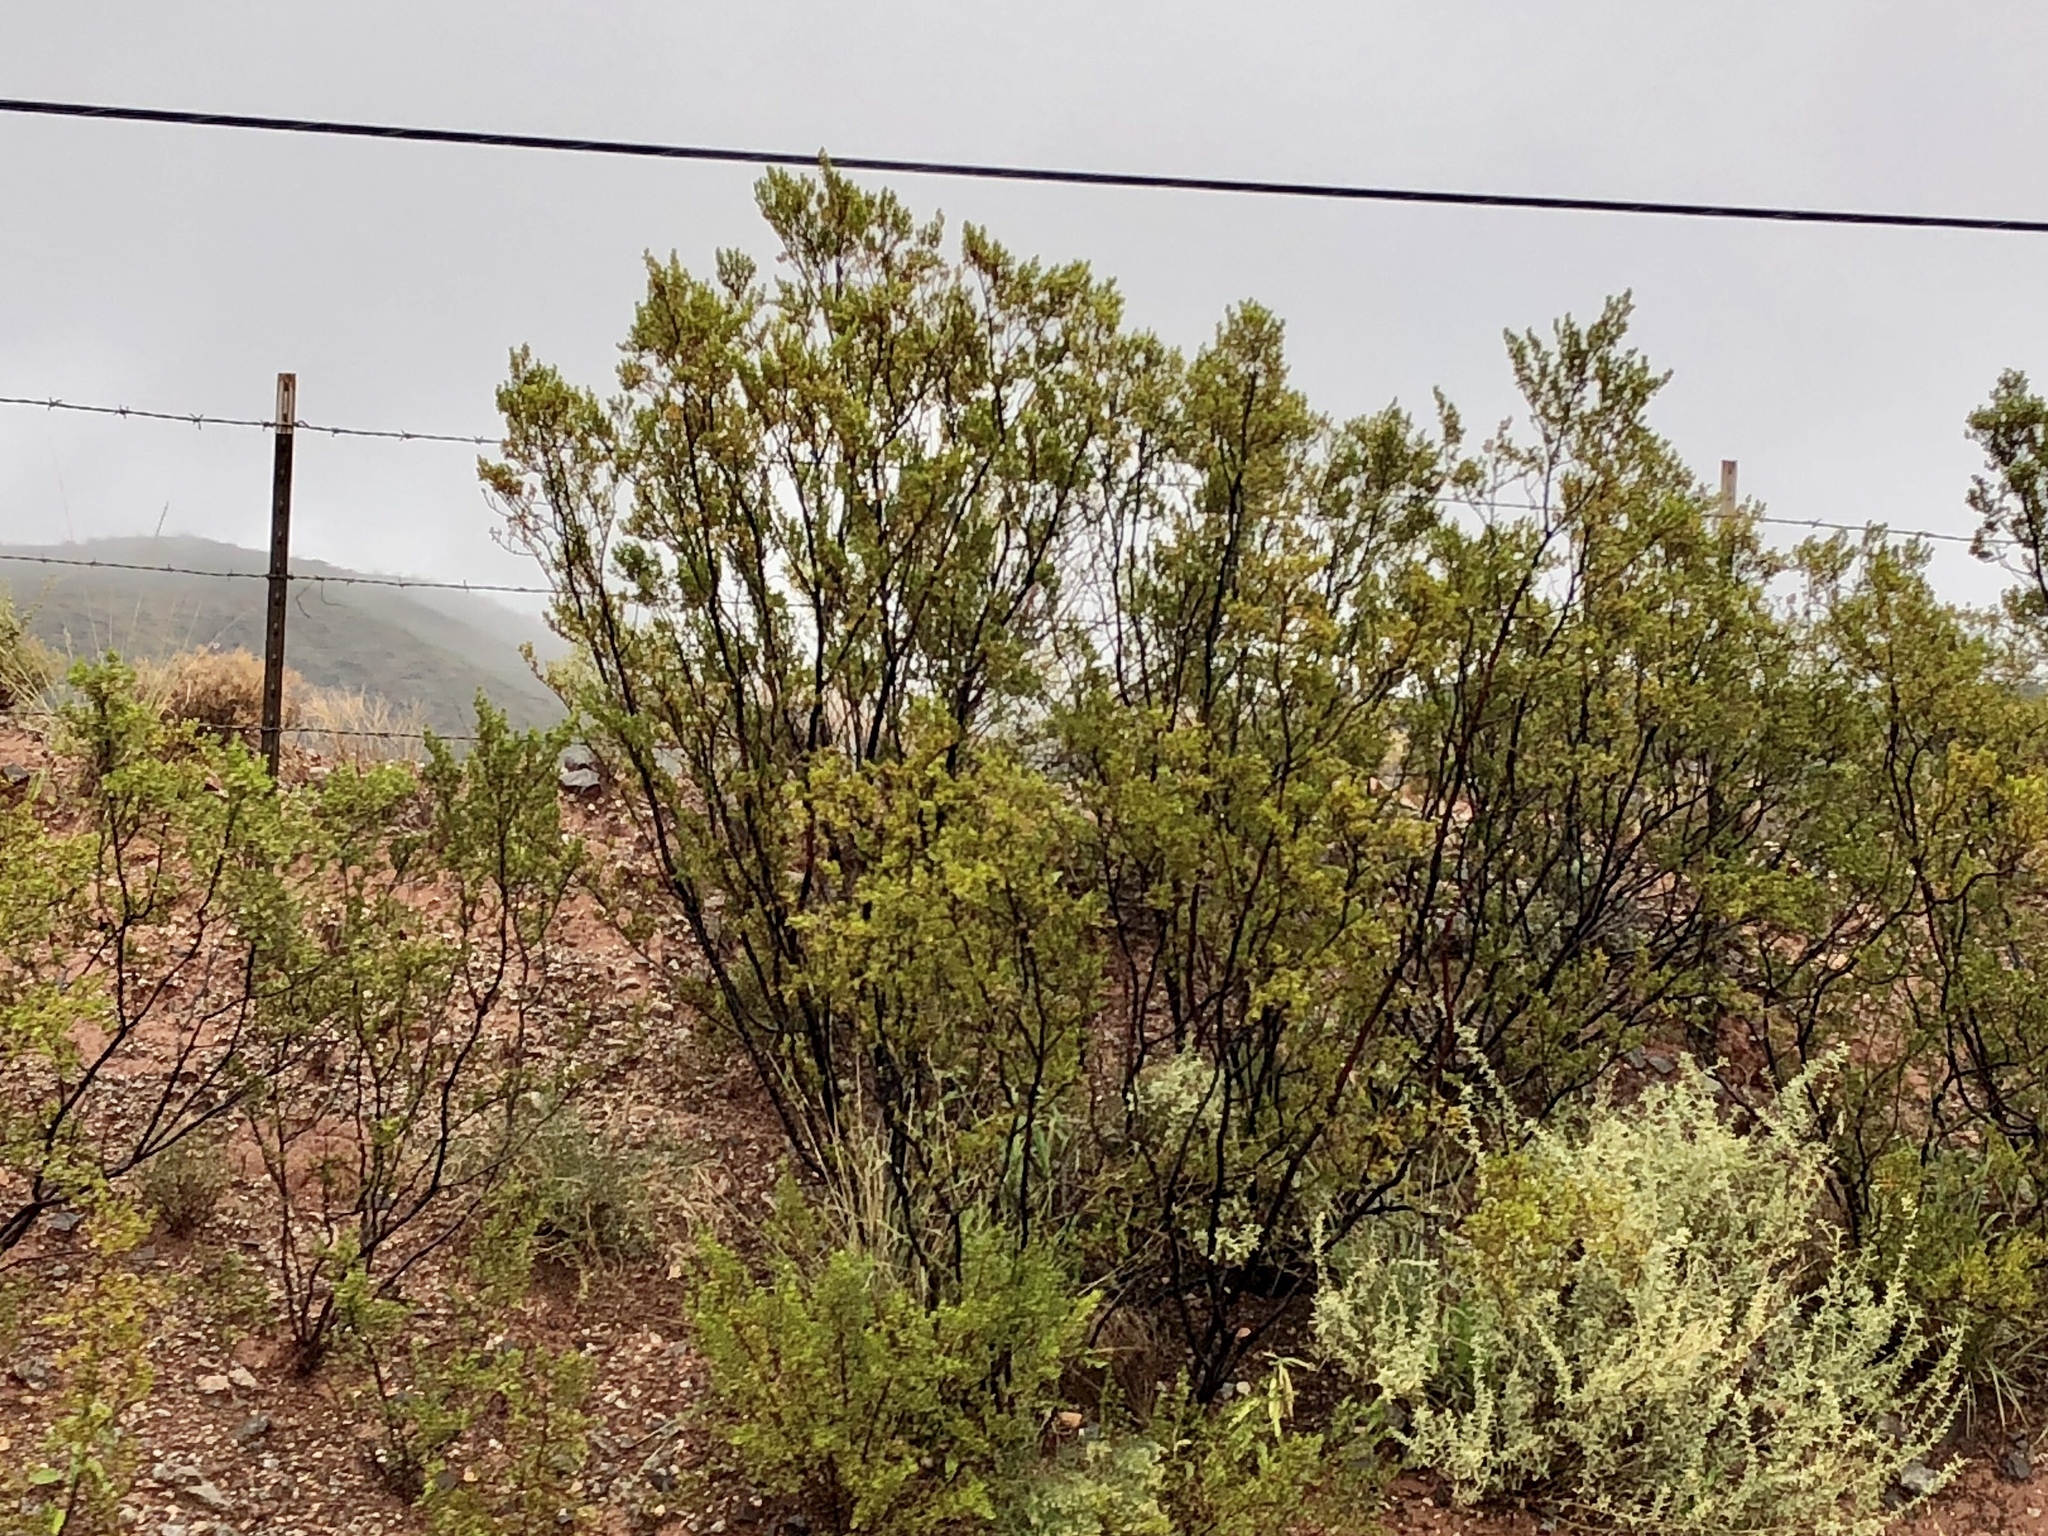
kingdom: Plantae
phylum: Tracheophyta
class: Magnoliopsida
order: Zygophyllales
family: Zygophyllaceae
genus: Larrea
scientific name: Larrea tridentata
